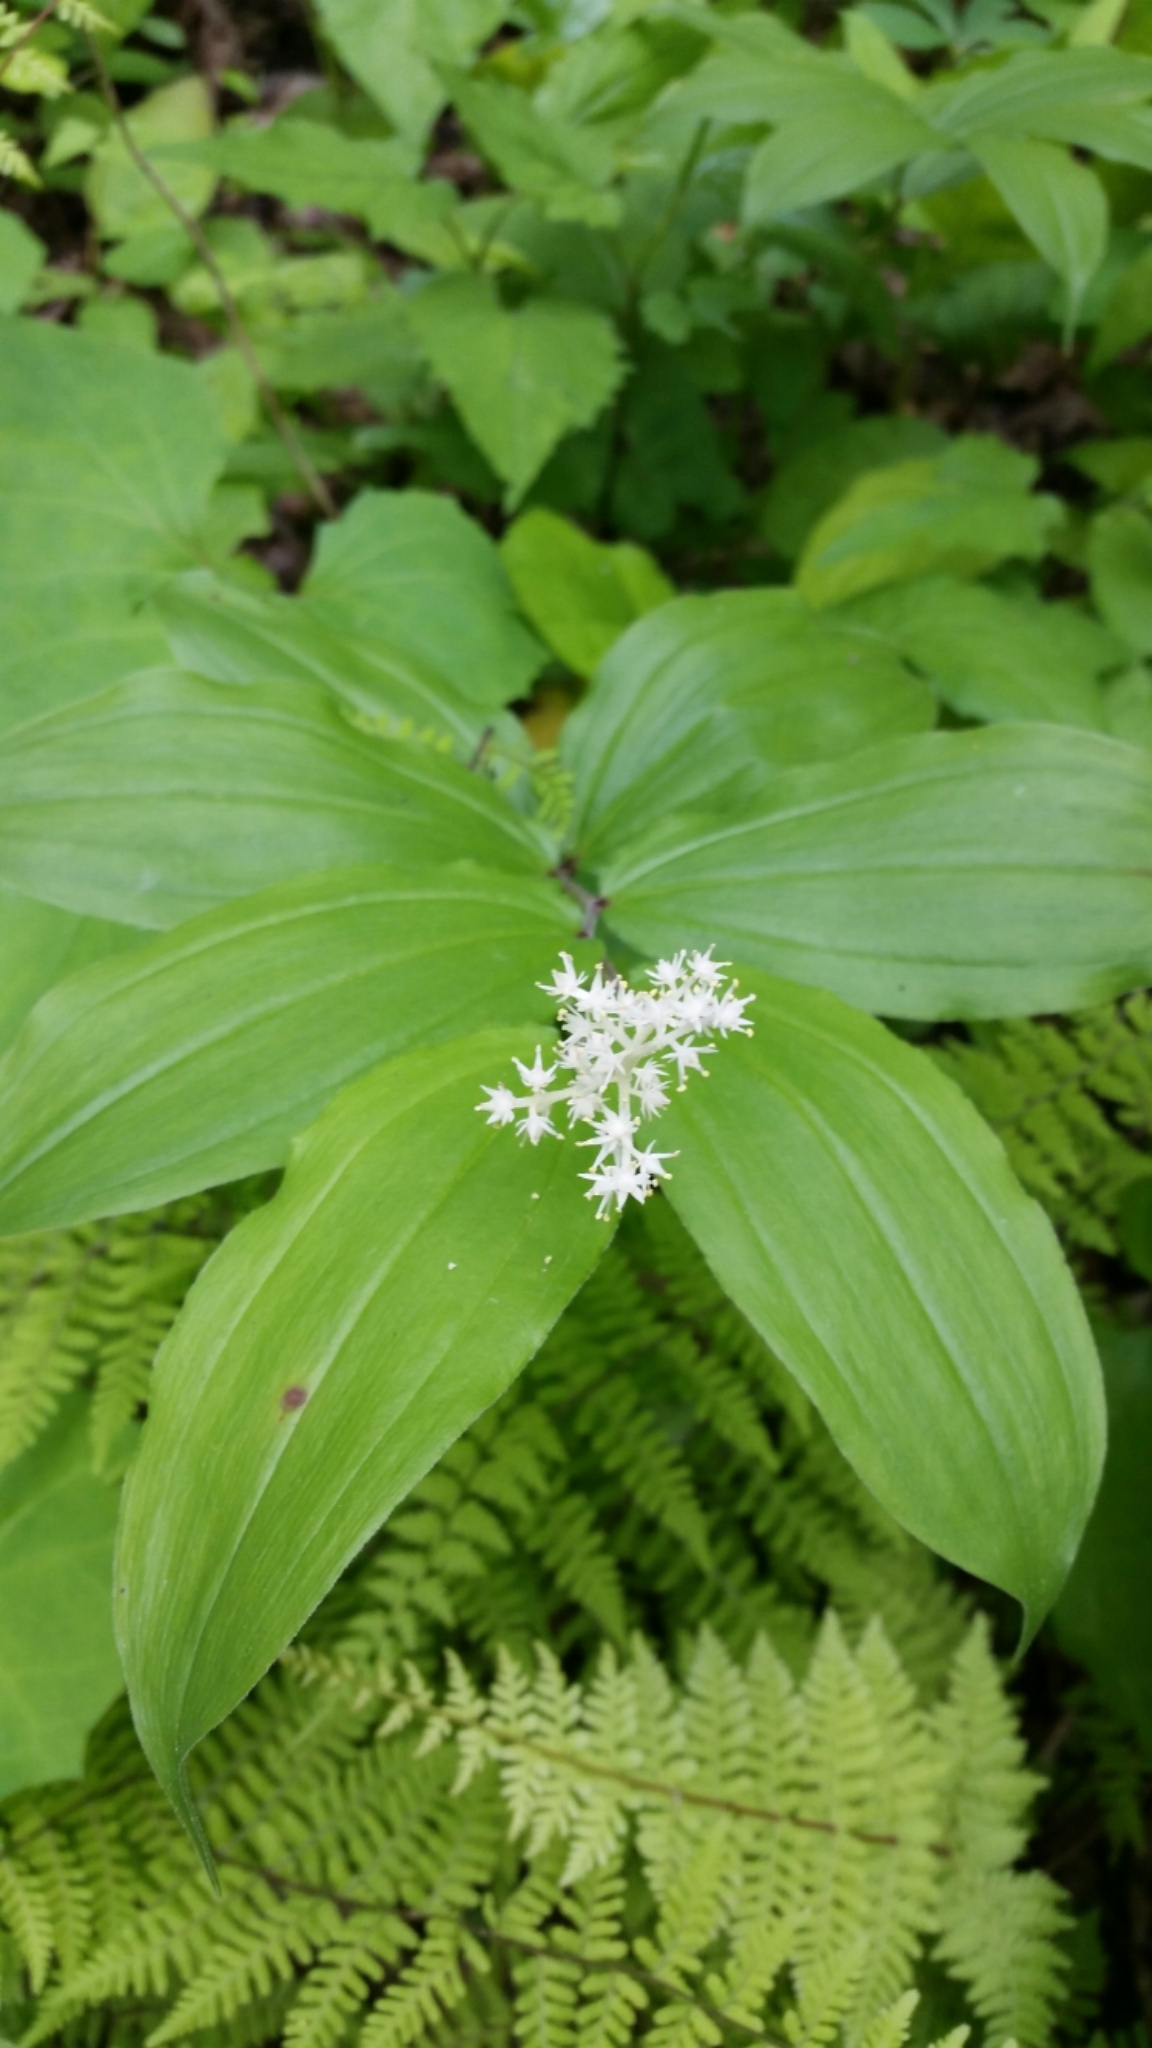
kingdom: Plantae
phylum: Tracheophyta
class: Liliopsida
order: Asparagales
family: Asparagaceae
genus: Maianthemum
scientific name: Maianthemum racemosum
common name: False spikenard
